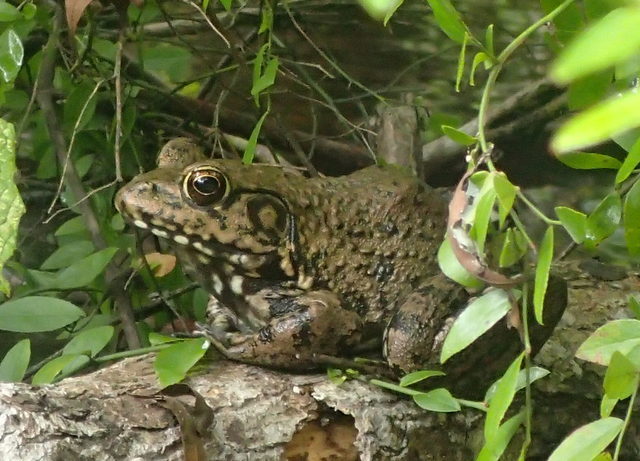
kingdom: Animalia
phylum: Chordata
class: Amphibia
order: Anura
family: Ranidae
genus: Lithobates
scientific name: Lithobates heckscheri
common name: River frog
